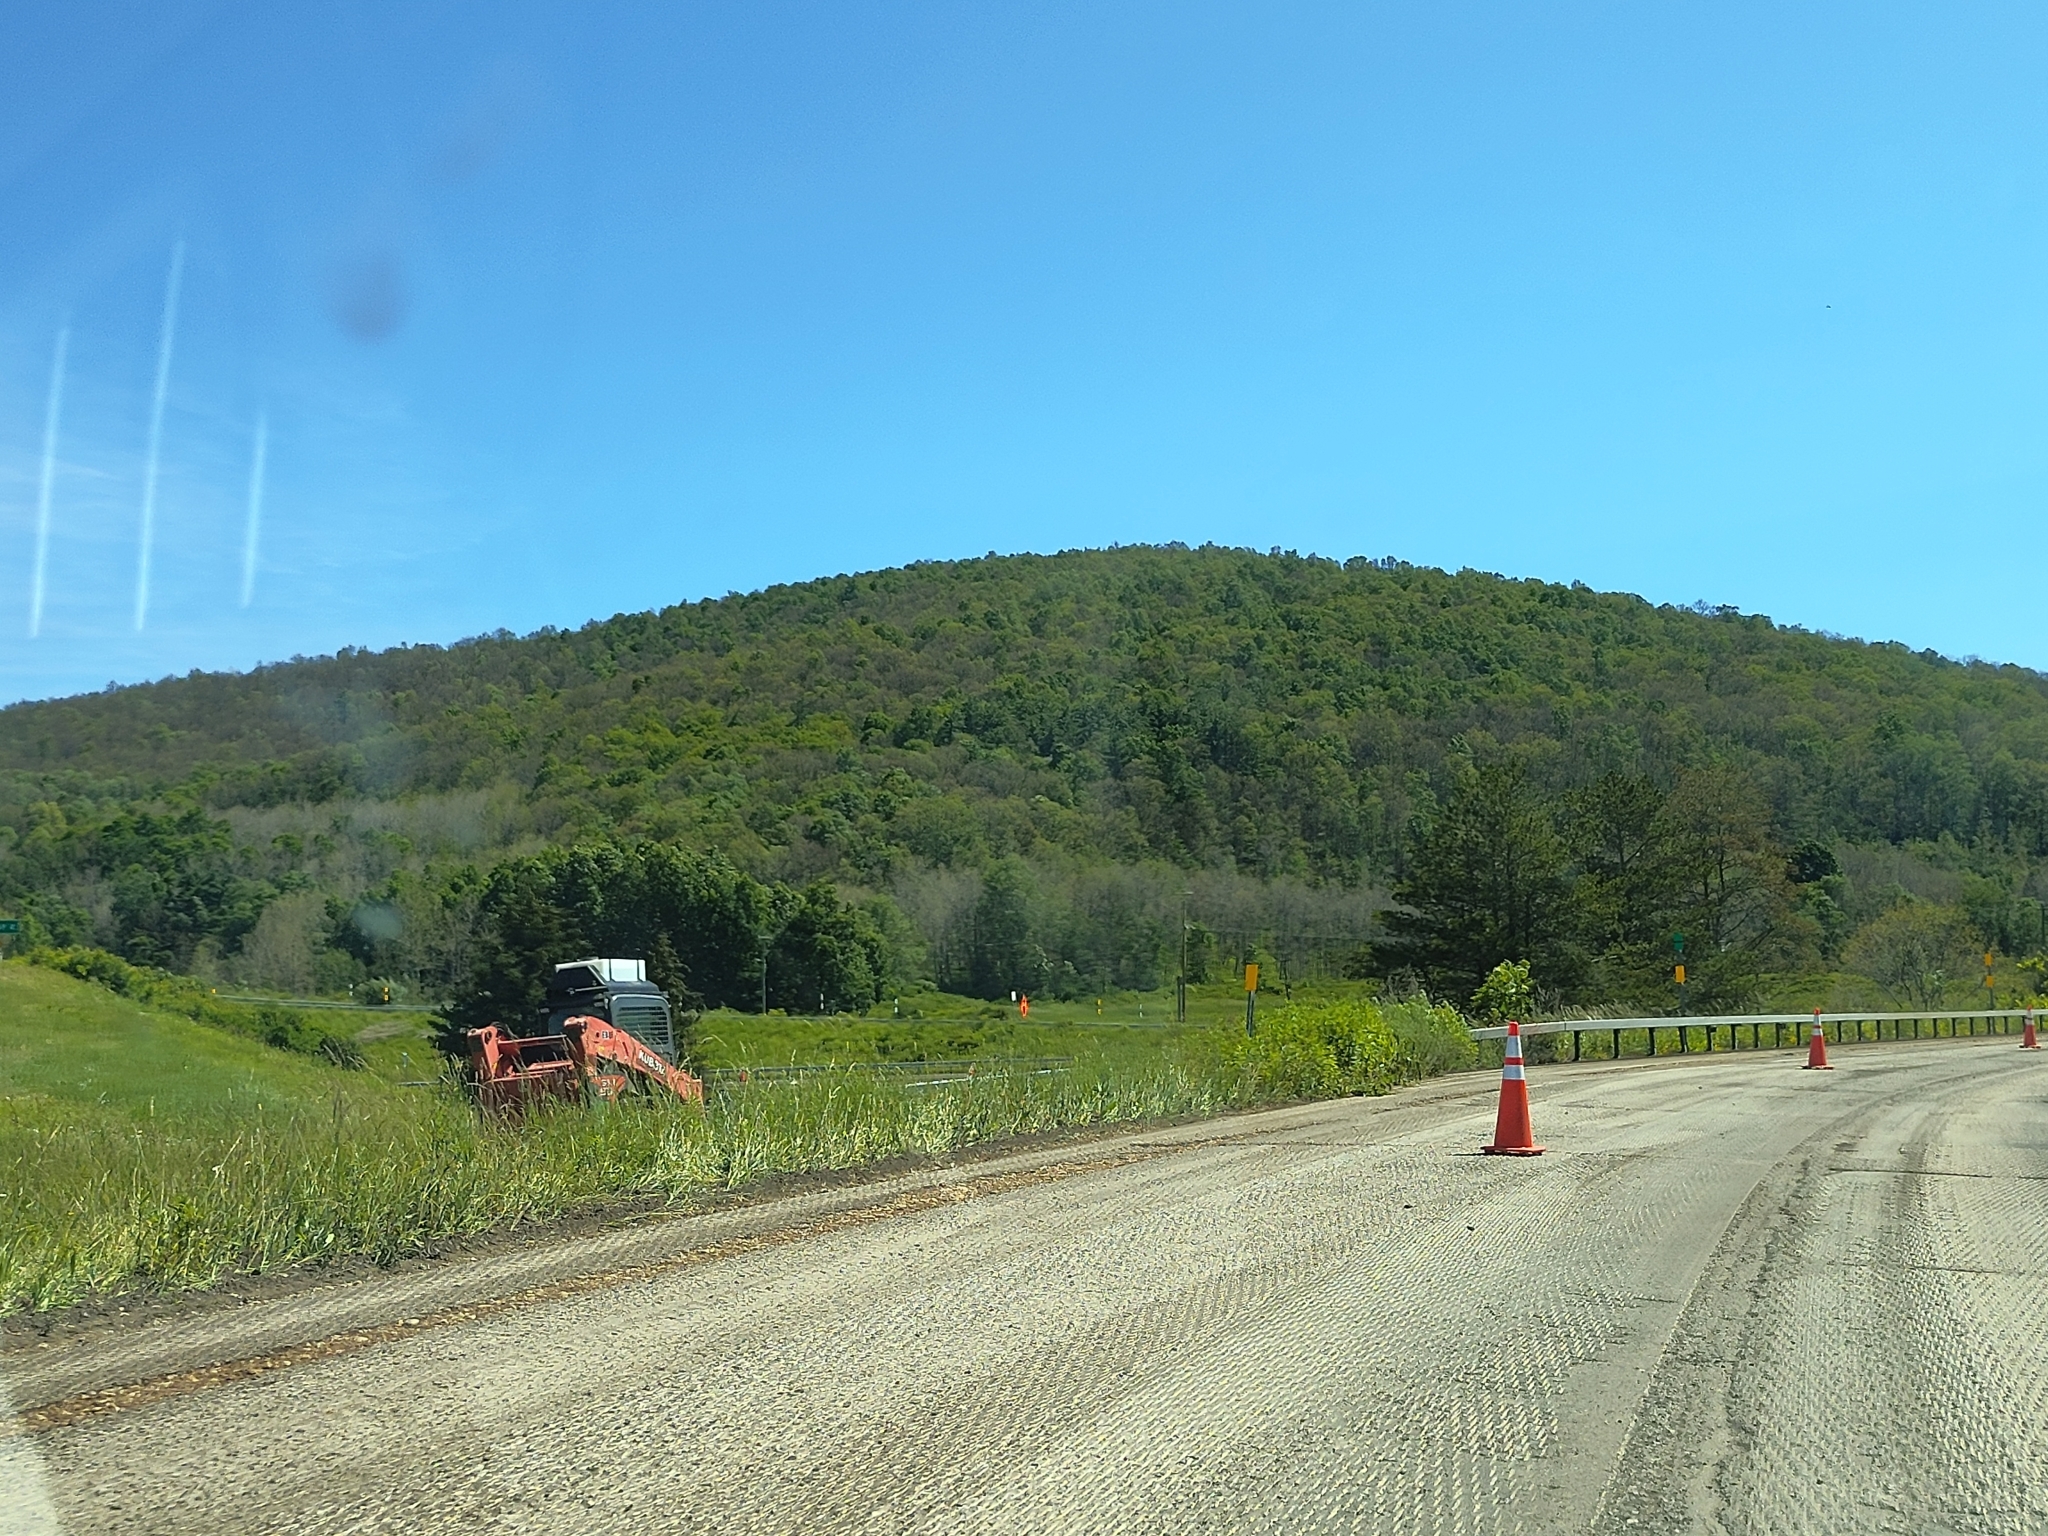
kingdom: Animalia
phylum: Arthropoda
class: Insecta
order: Lepidoptera
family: Erebidae
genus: Lymantria
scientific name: Lymantria dispar
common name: Gypsy moth
